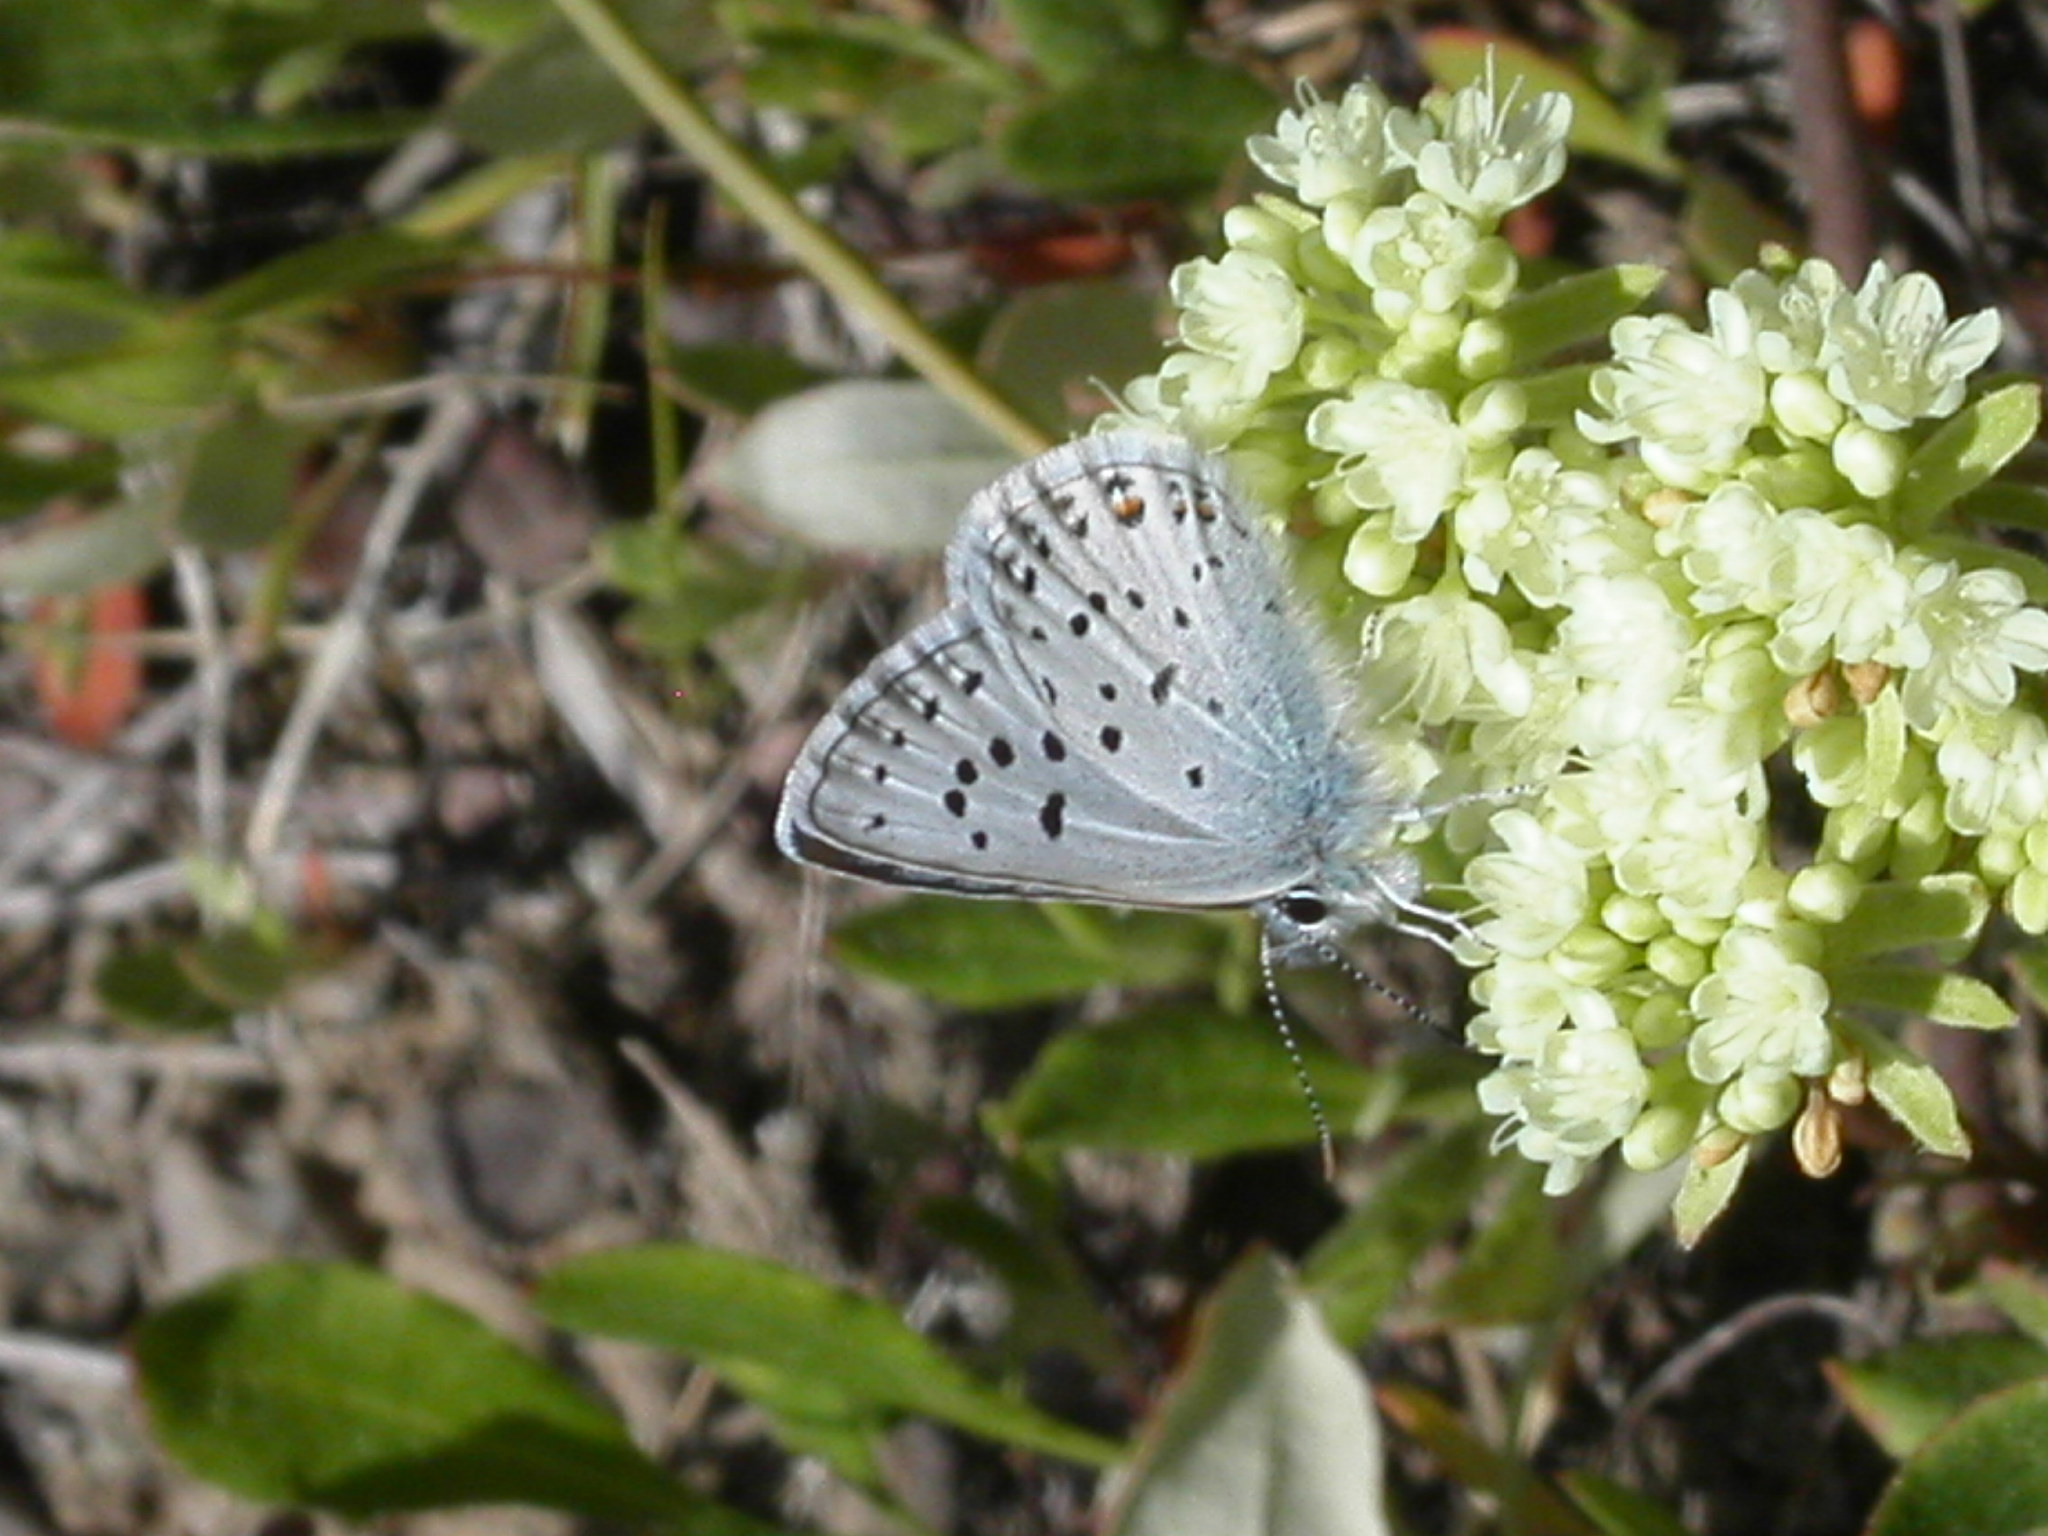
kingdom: Animalia
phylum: Arthropoda
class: Insecta
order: Lepidoptera
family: Lycaenidae
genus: Icaricia
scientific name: Icaricia saepiolus
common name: Greenish blue
